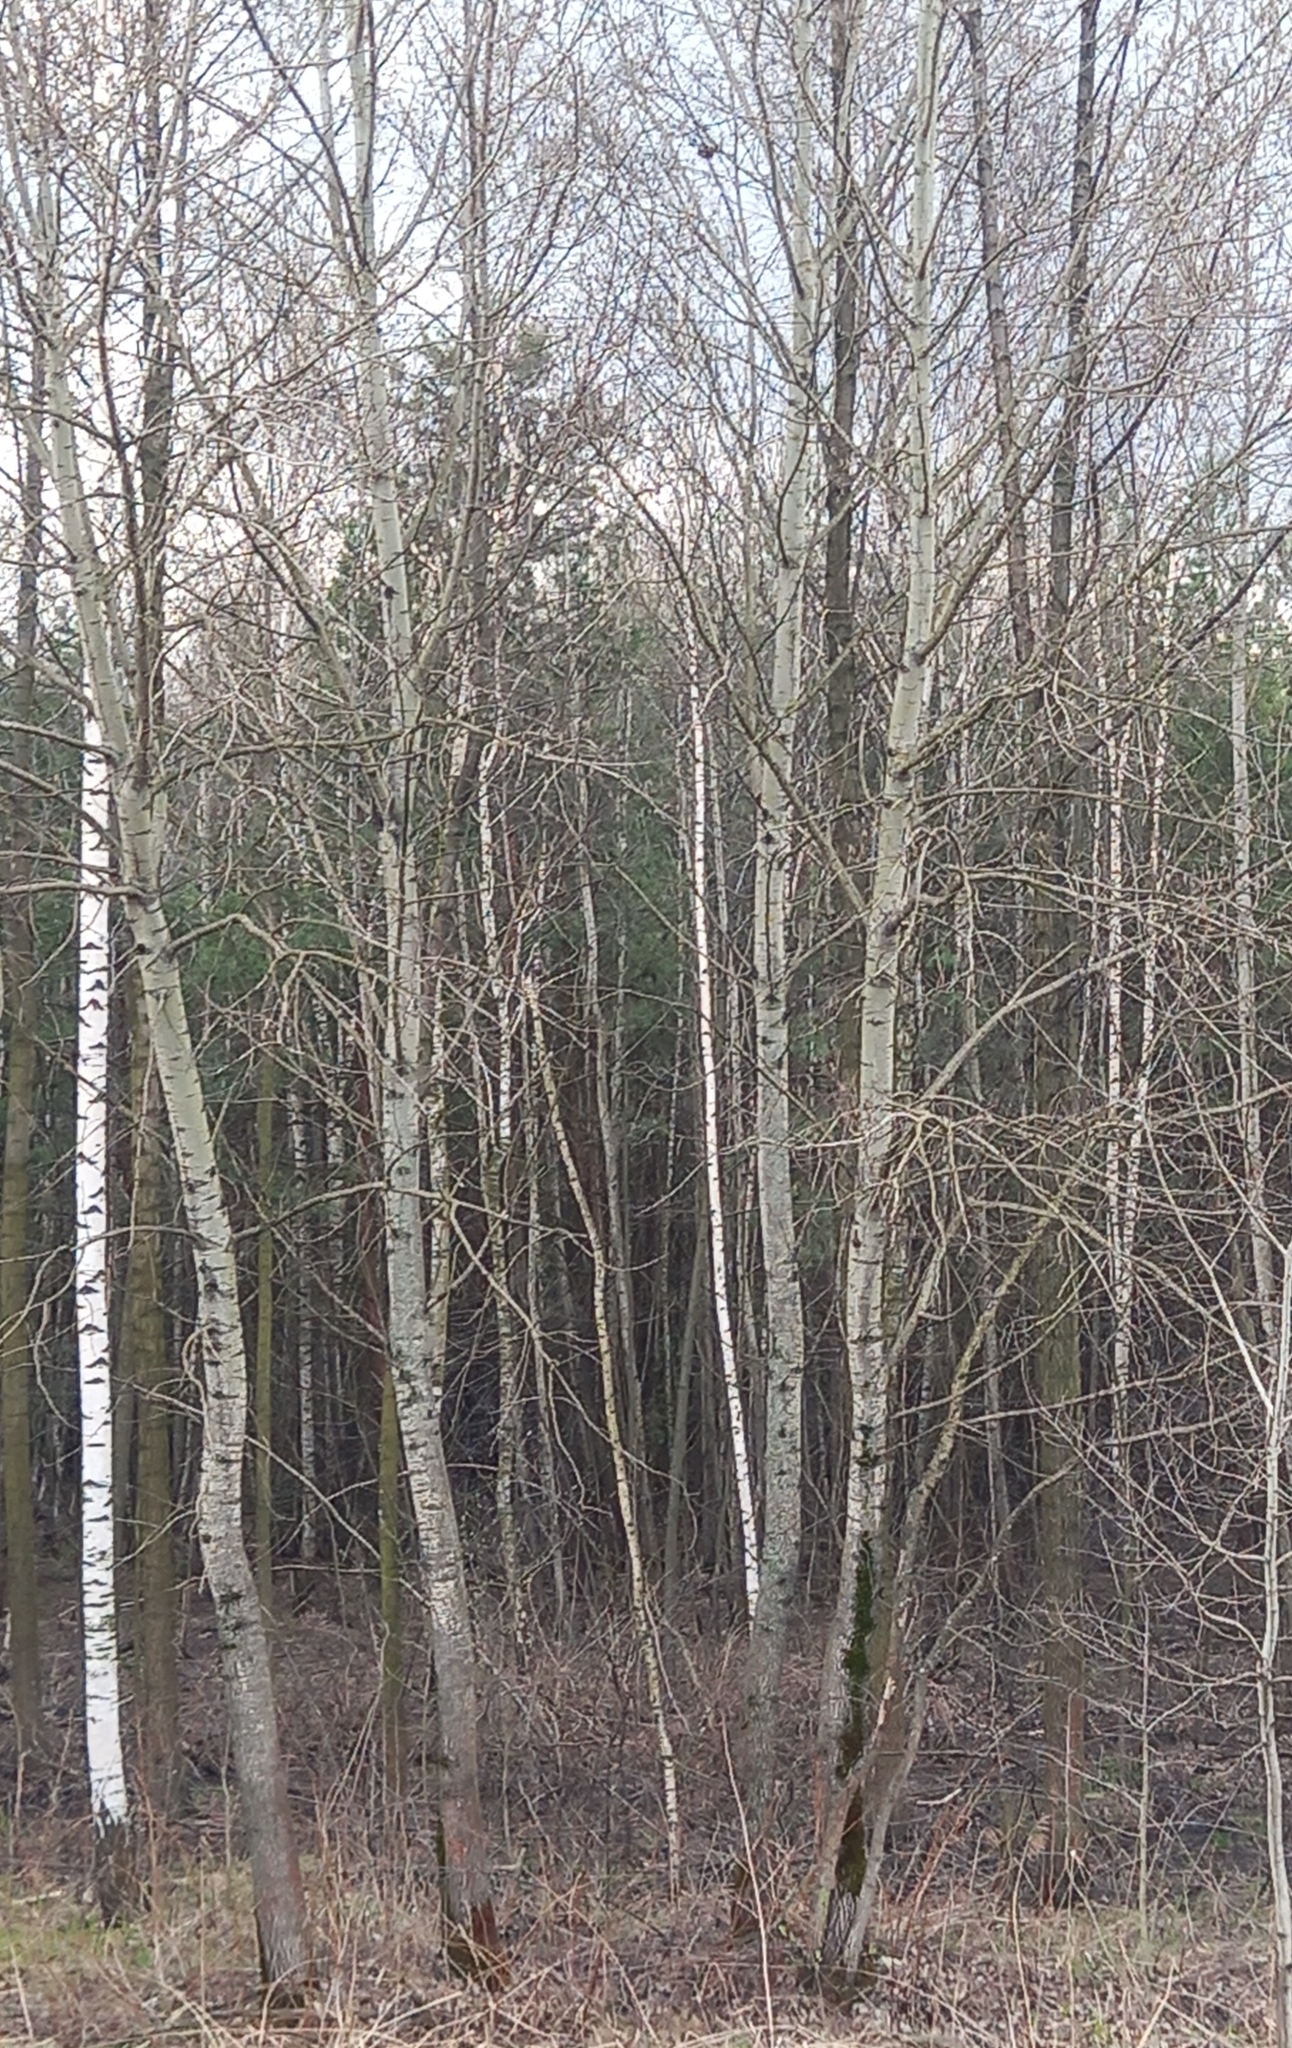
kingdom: Plantae
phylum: Tracheophyta
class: Magnoliopsida
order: Malpighiales
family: Salicaceae
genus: Populus
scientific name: Populus tremula
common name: European aspen
